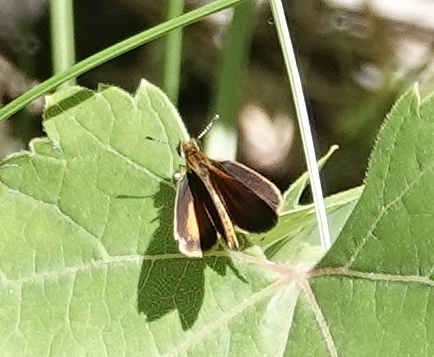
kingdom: Animalia
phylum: Arthropoda
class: Insecta
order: Lepidoptera
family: Hesperiidae
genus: Ancyloxypha
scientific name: Ancyloxypha numitor
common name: Least skipper
